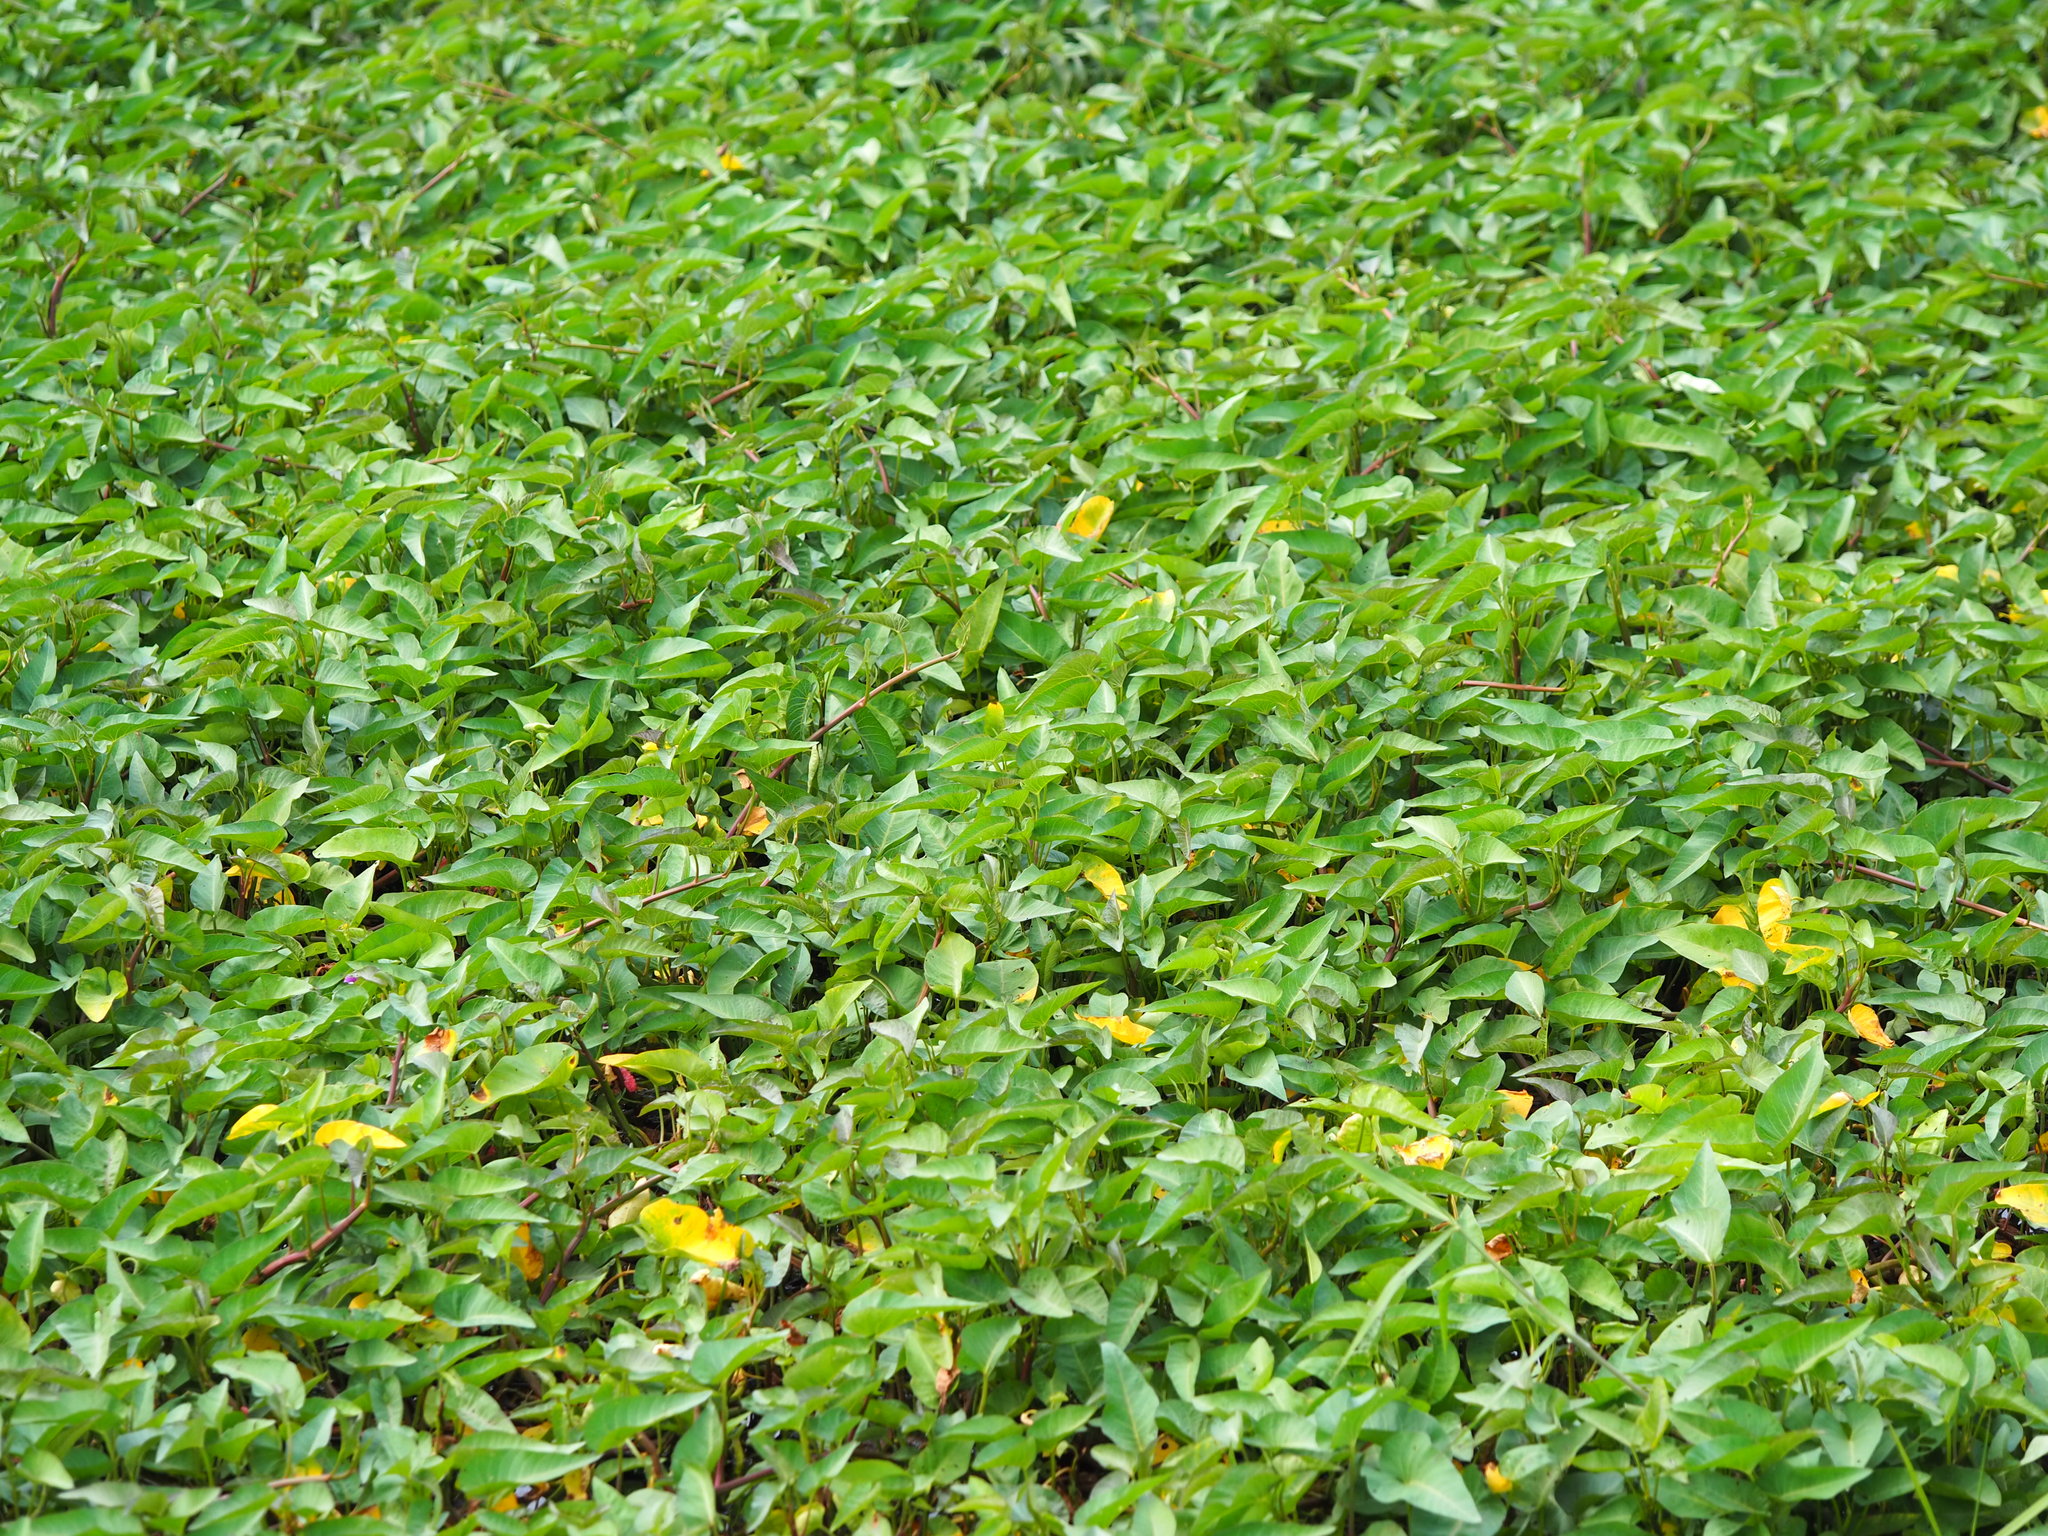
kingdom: Plantae
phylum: Tracheophyta
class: Magnoliopsida
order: Solanales
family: Convolvulaceae
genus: Ipomoea
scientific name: Ipomoea aquatica
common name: Swamp morning-glory
